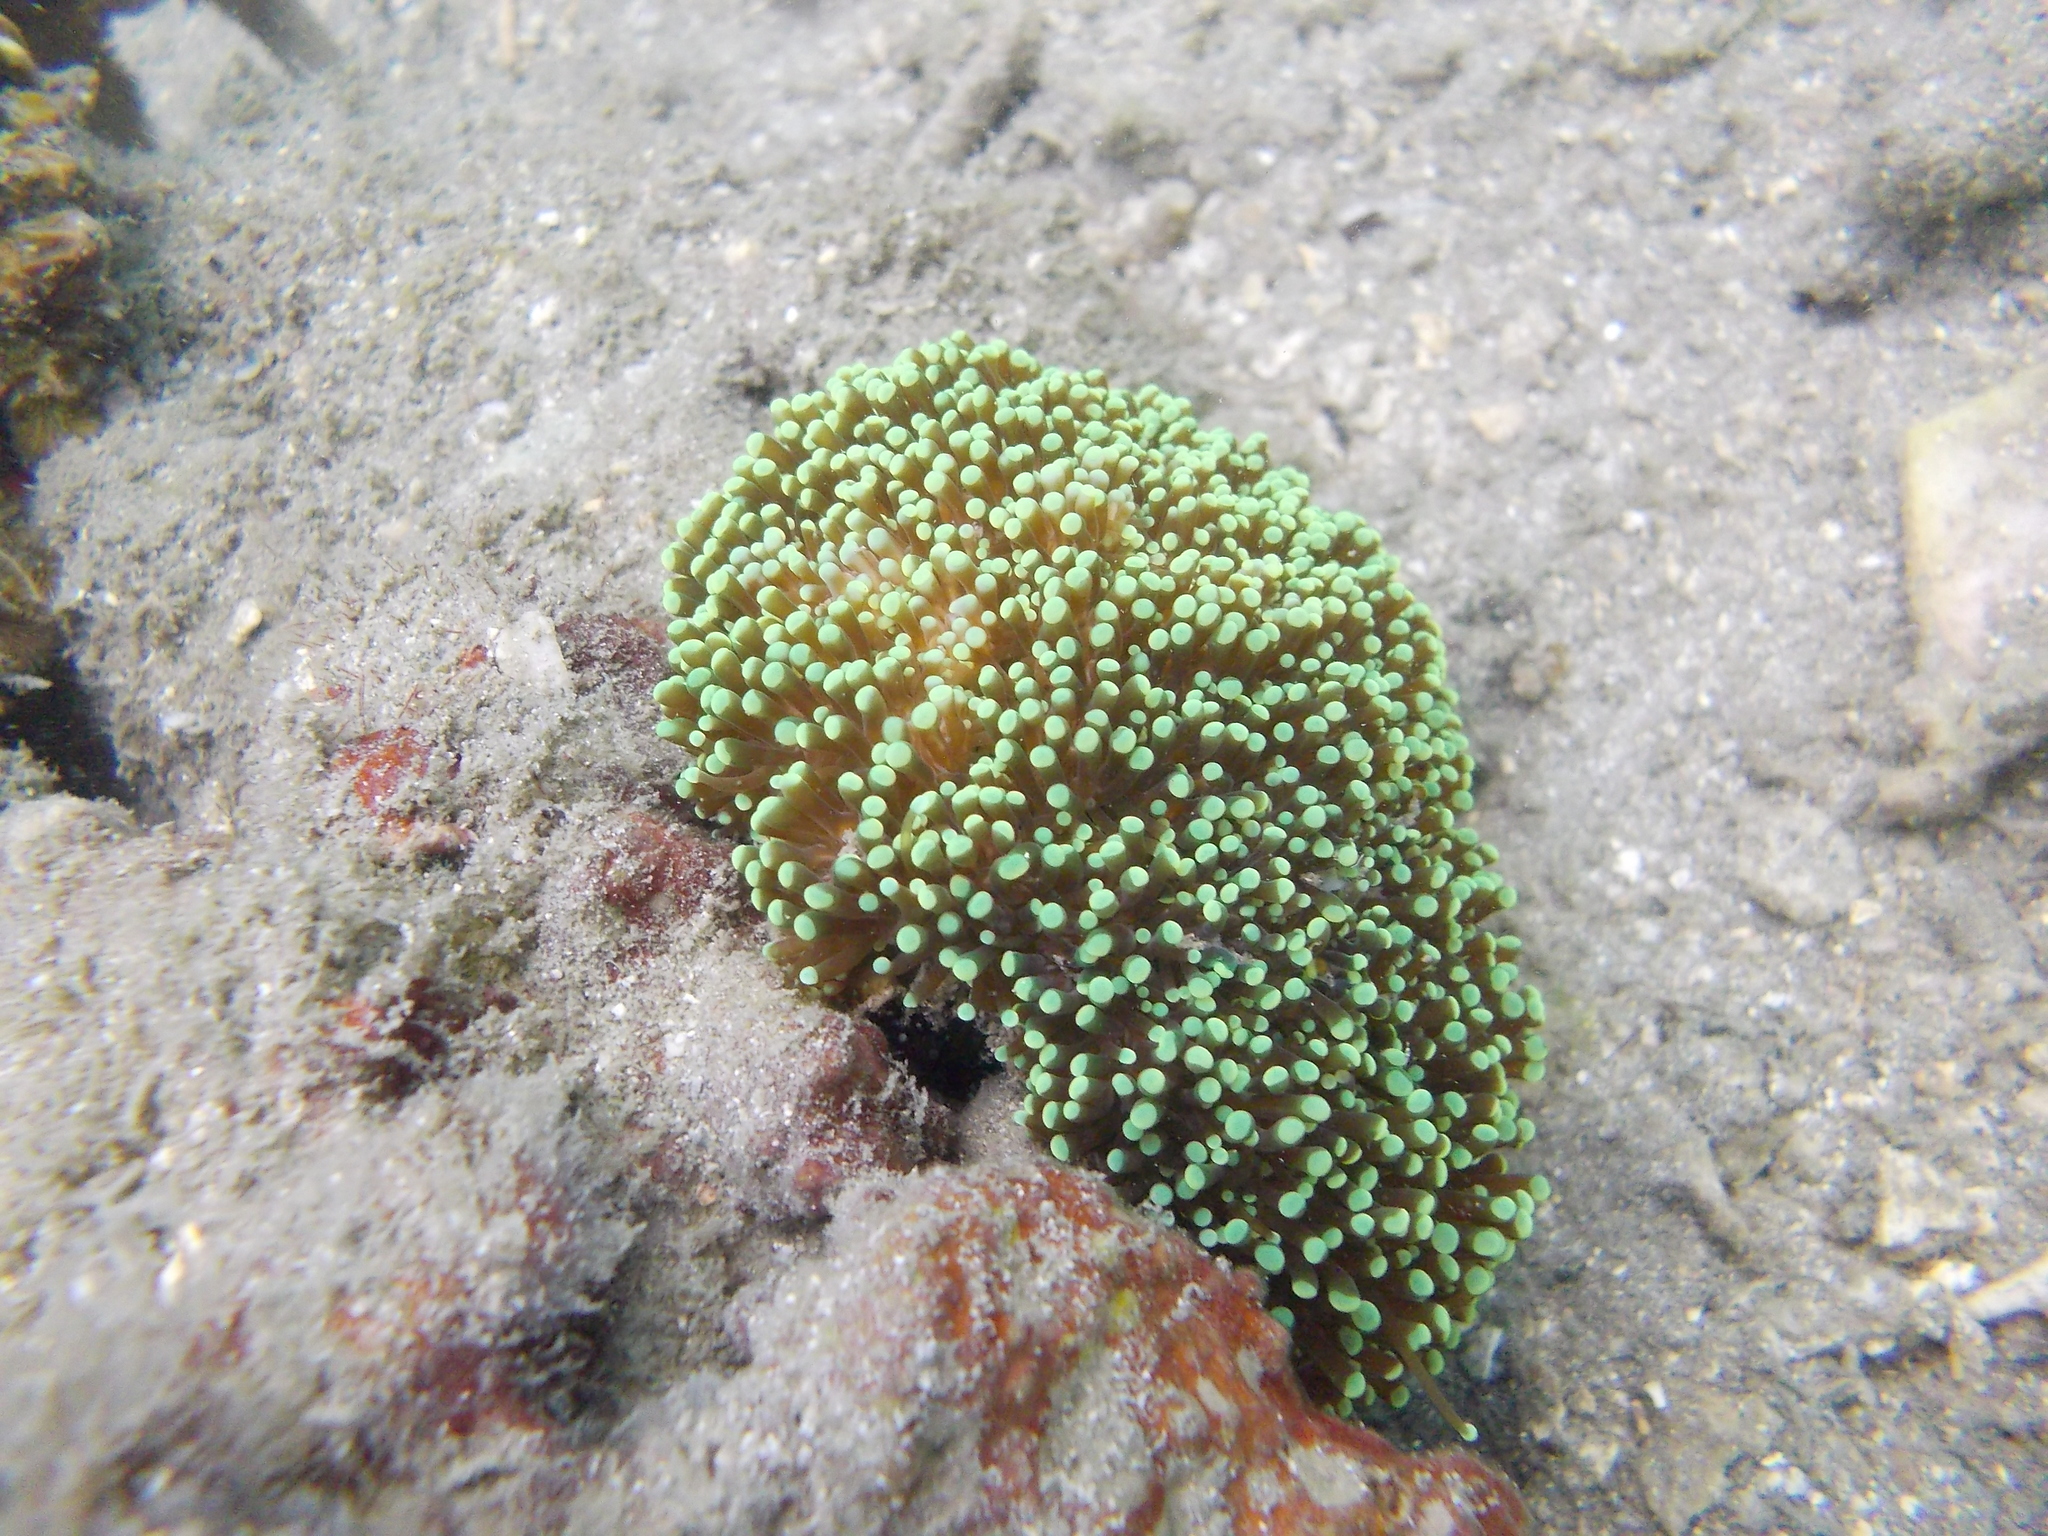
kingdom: Animalia
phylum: Cnidaria
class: Anthozoa
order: Scleractinia
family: Euphylliidae
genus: Euphyllia
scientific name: Euphyllia cristata
